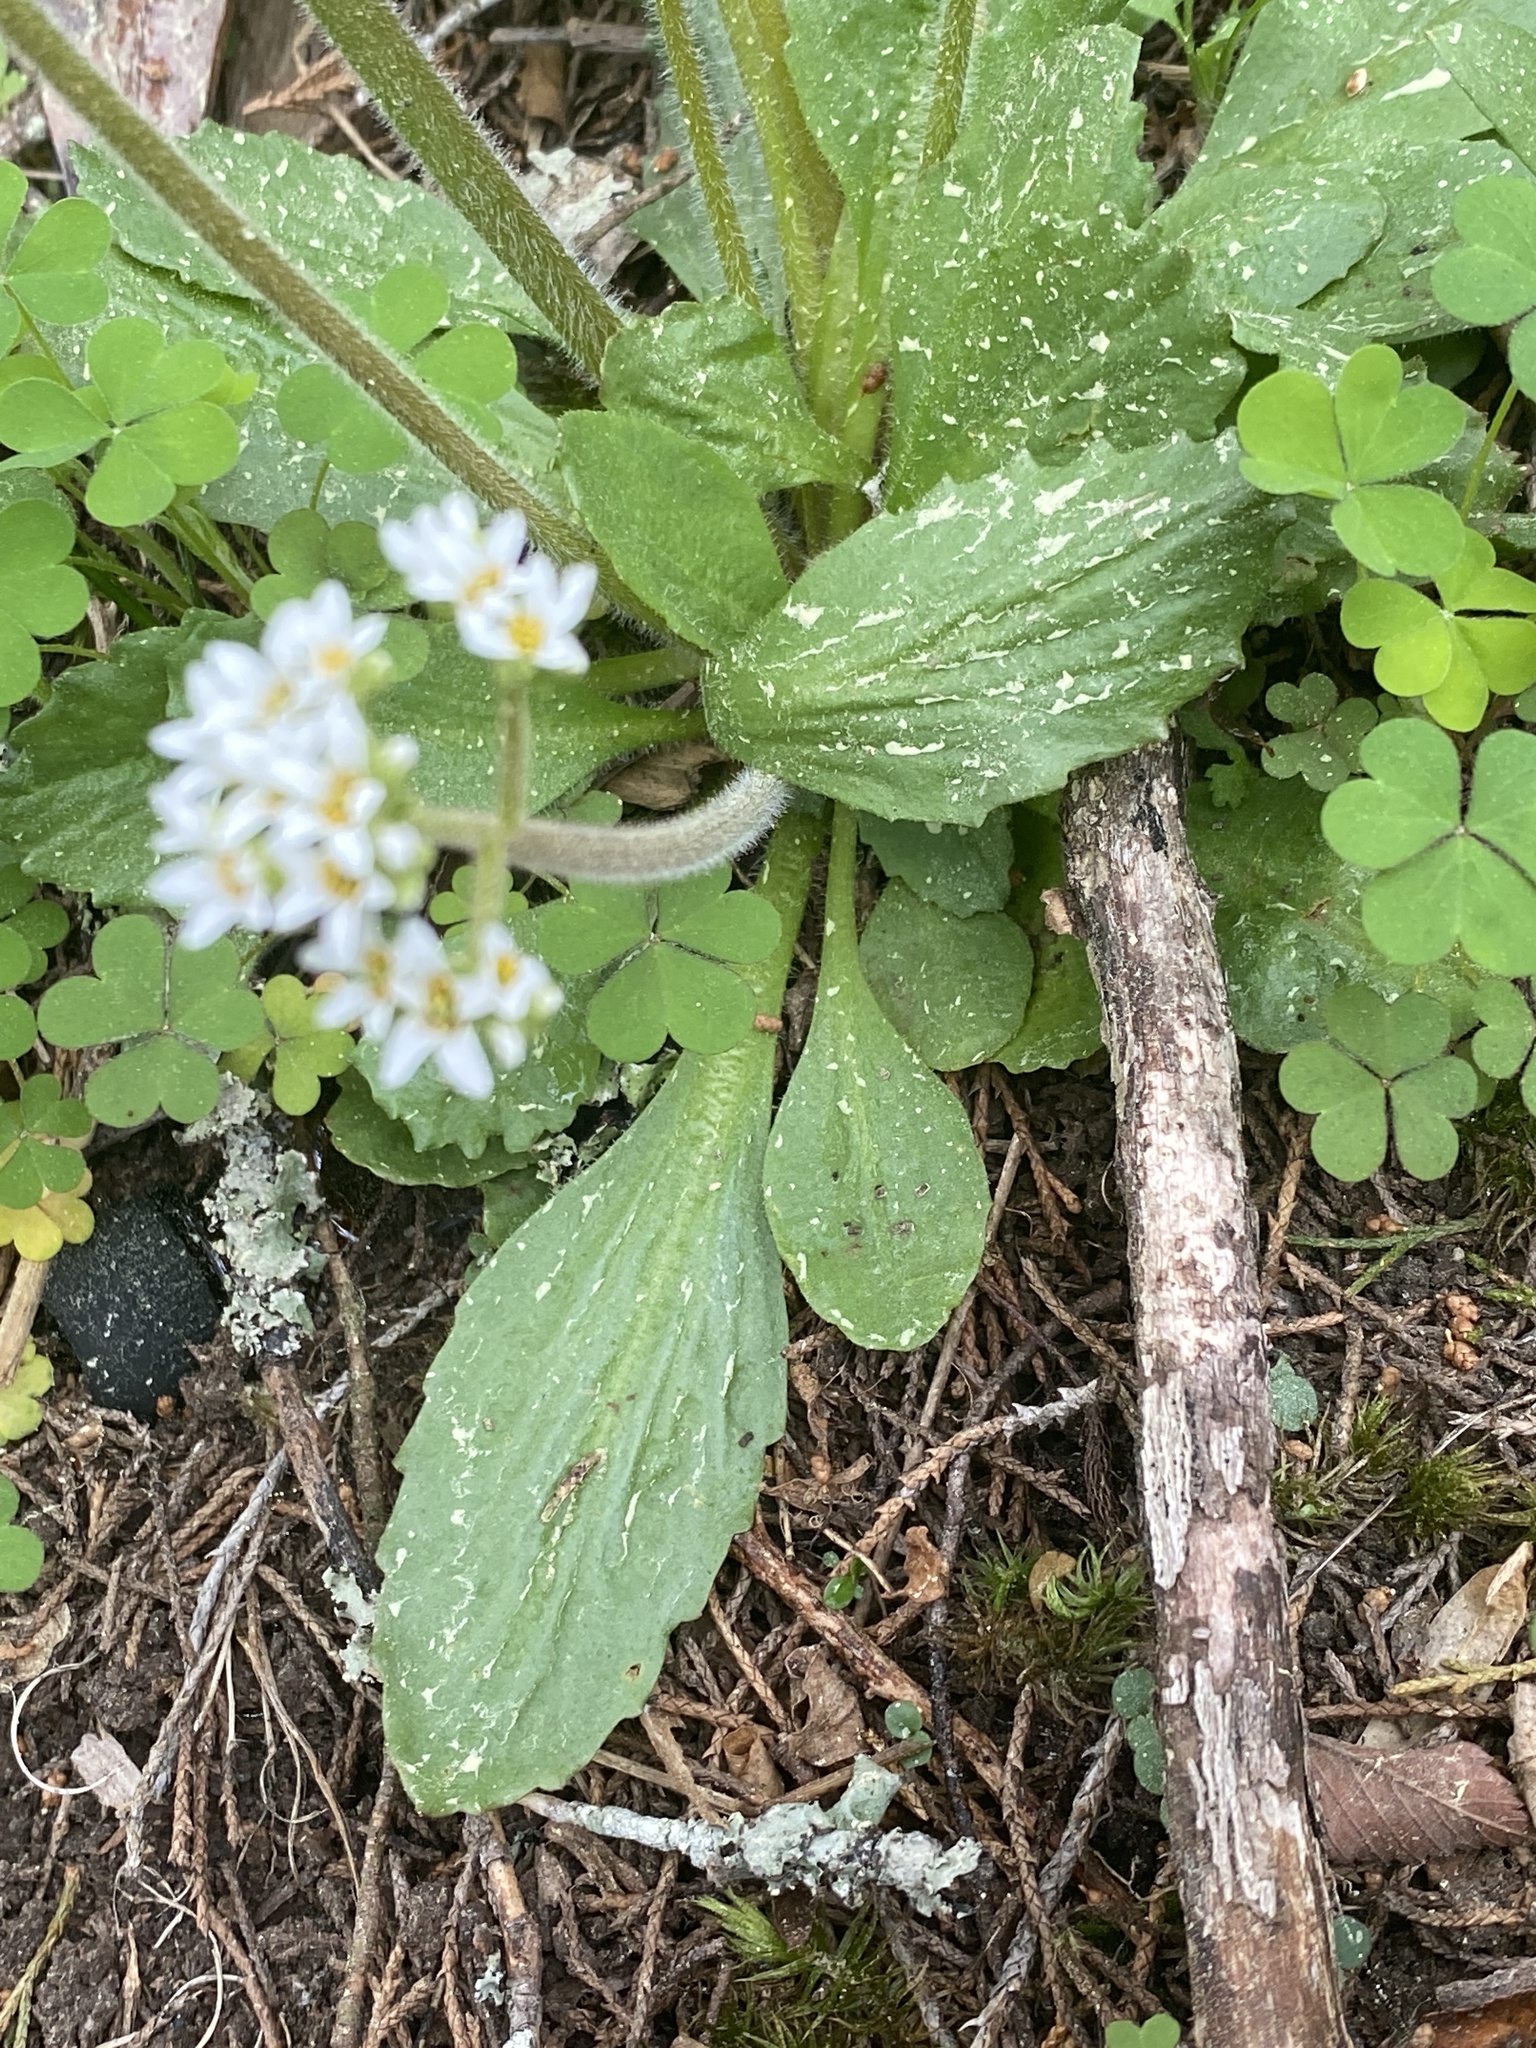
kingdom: Plantae
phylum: Tracheophyta
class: Magnoliopsida
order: Saxifragales
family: Saxifragaceae
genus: Micranthes
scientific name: Micranthes virginiensis
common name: Early saxifrage
